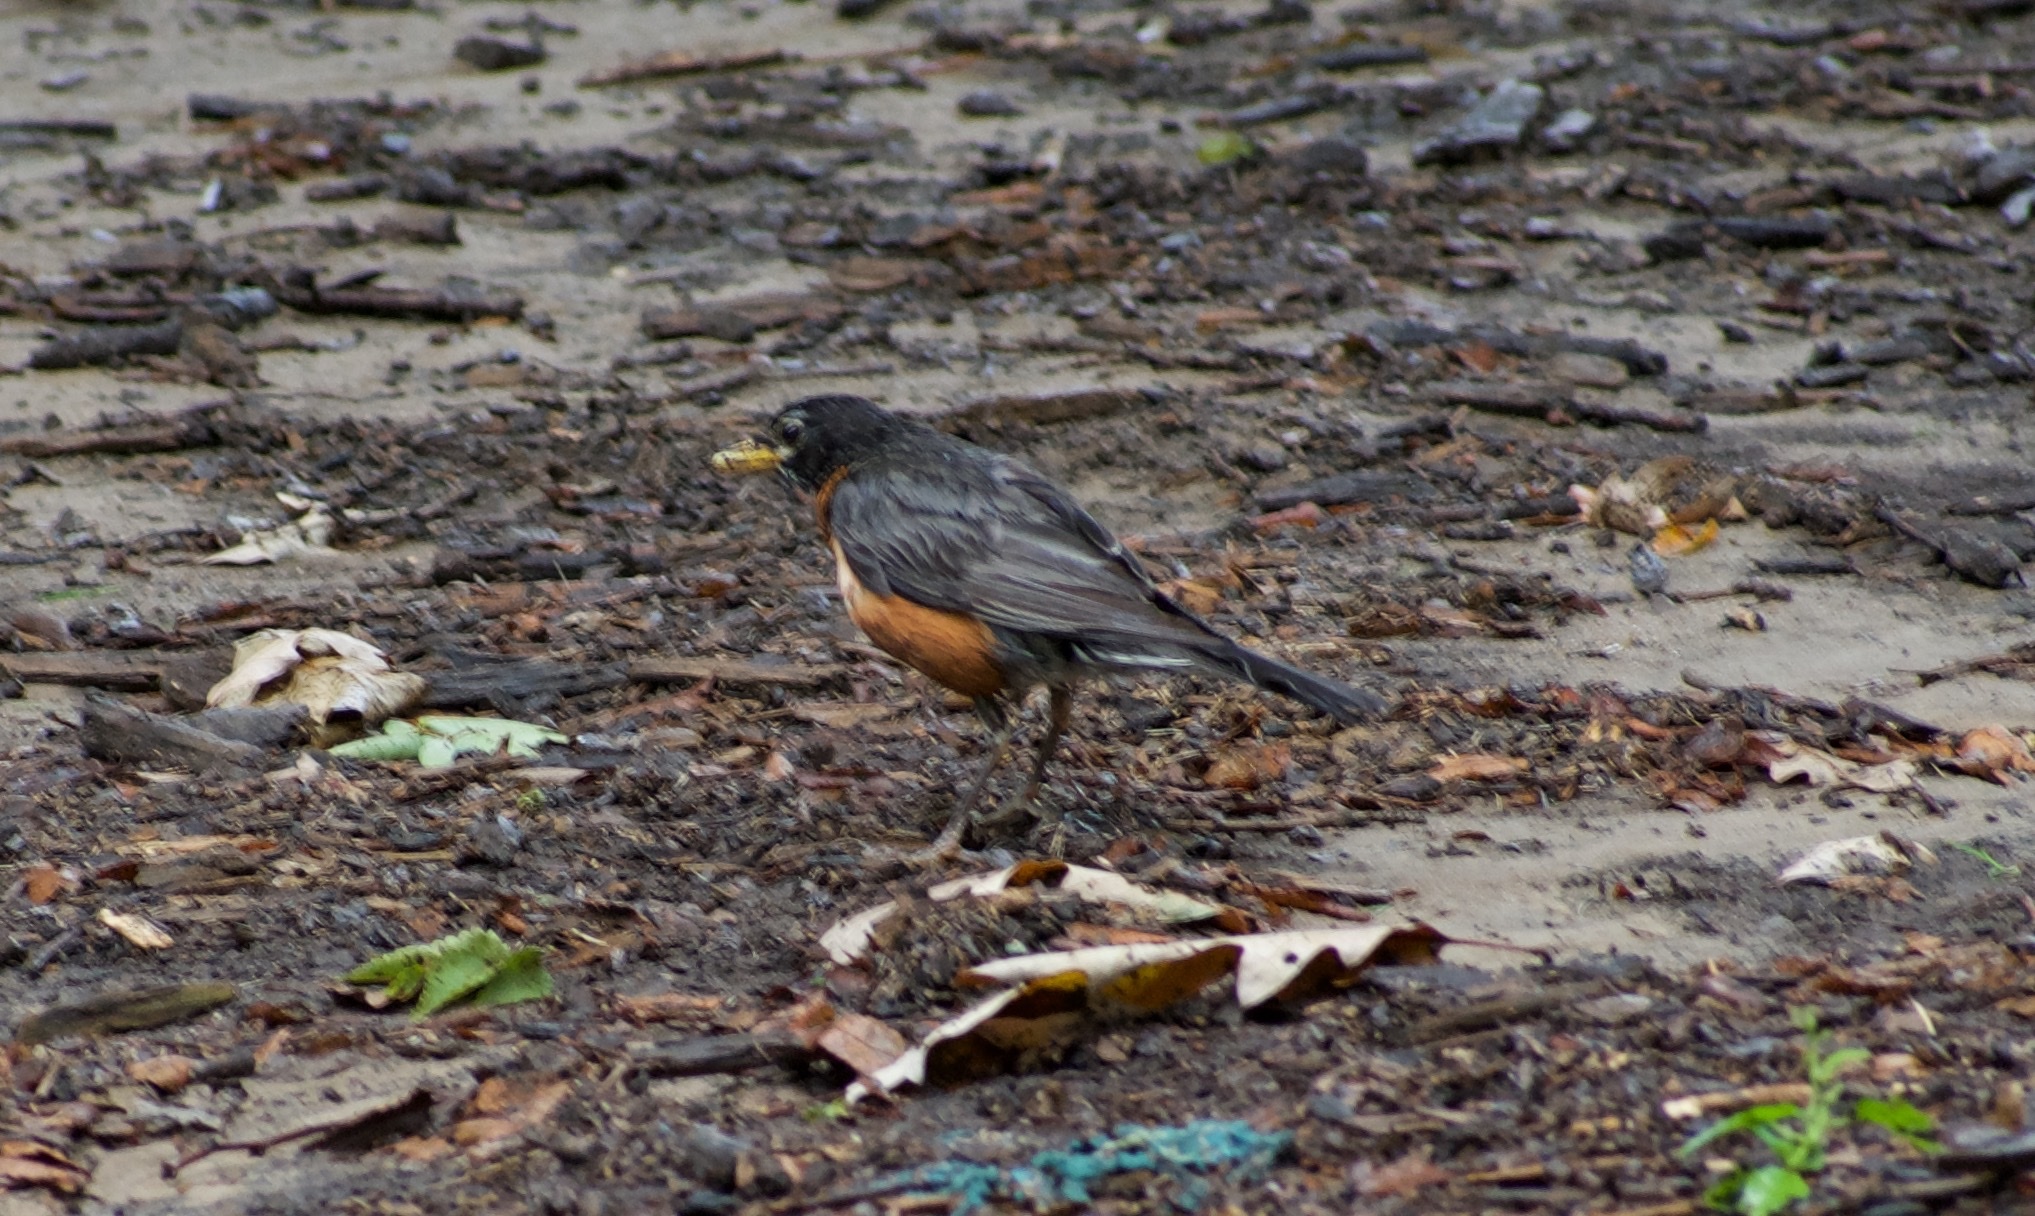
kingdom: Animalia
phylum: Chordata
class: Aves
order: Passeriformes
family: Turdidae
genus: Turdus
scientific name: Turdus migratorius
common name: American robin
